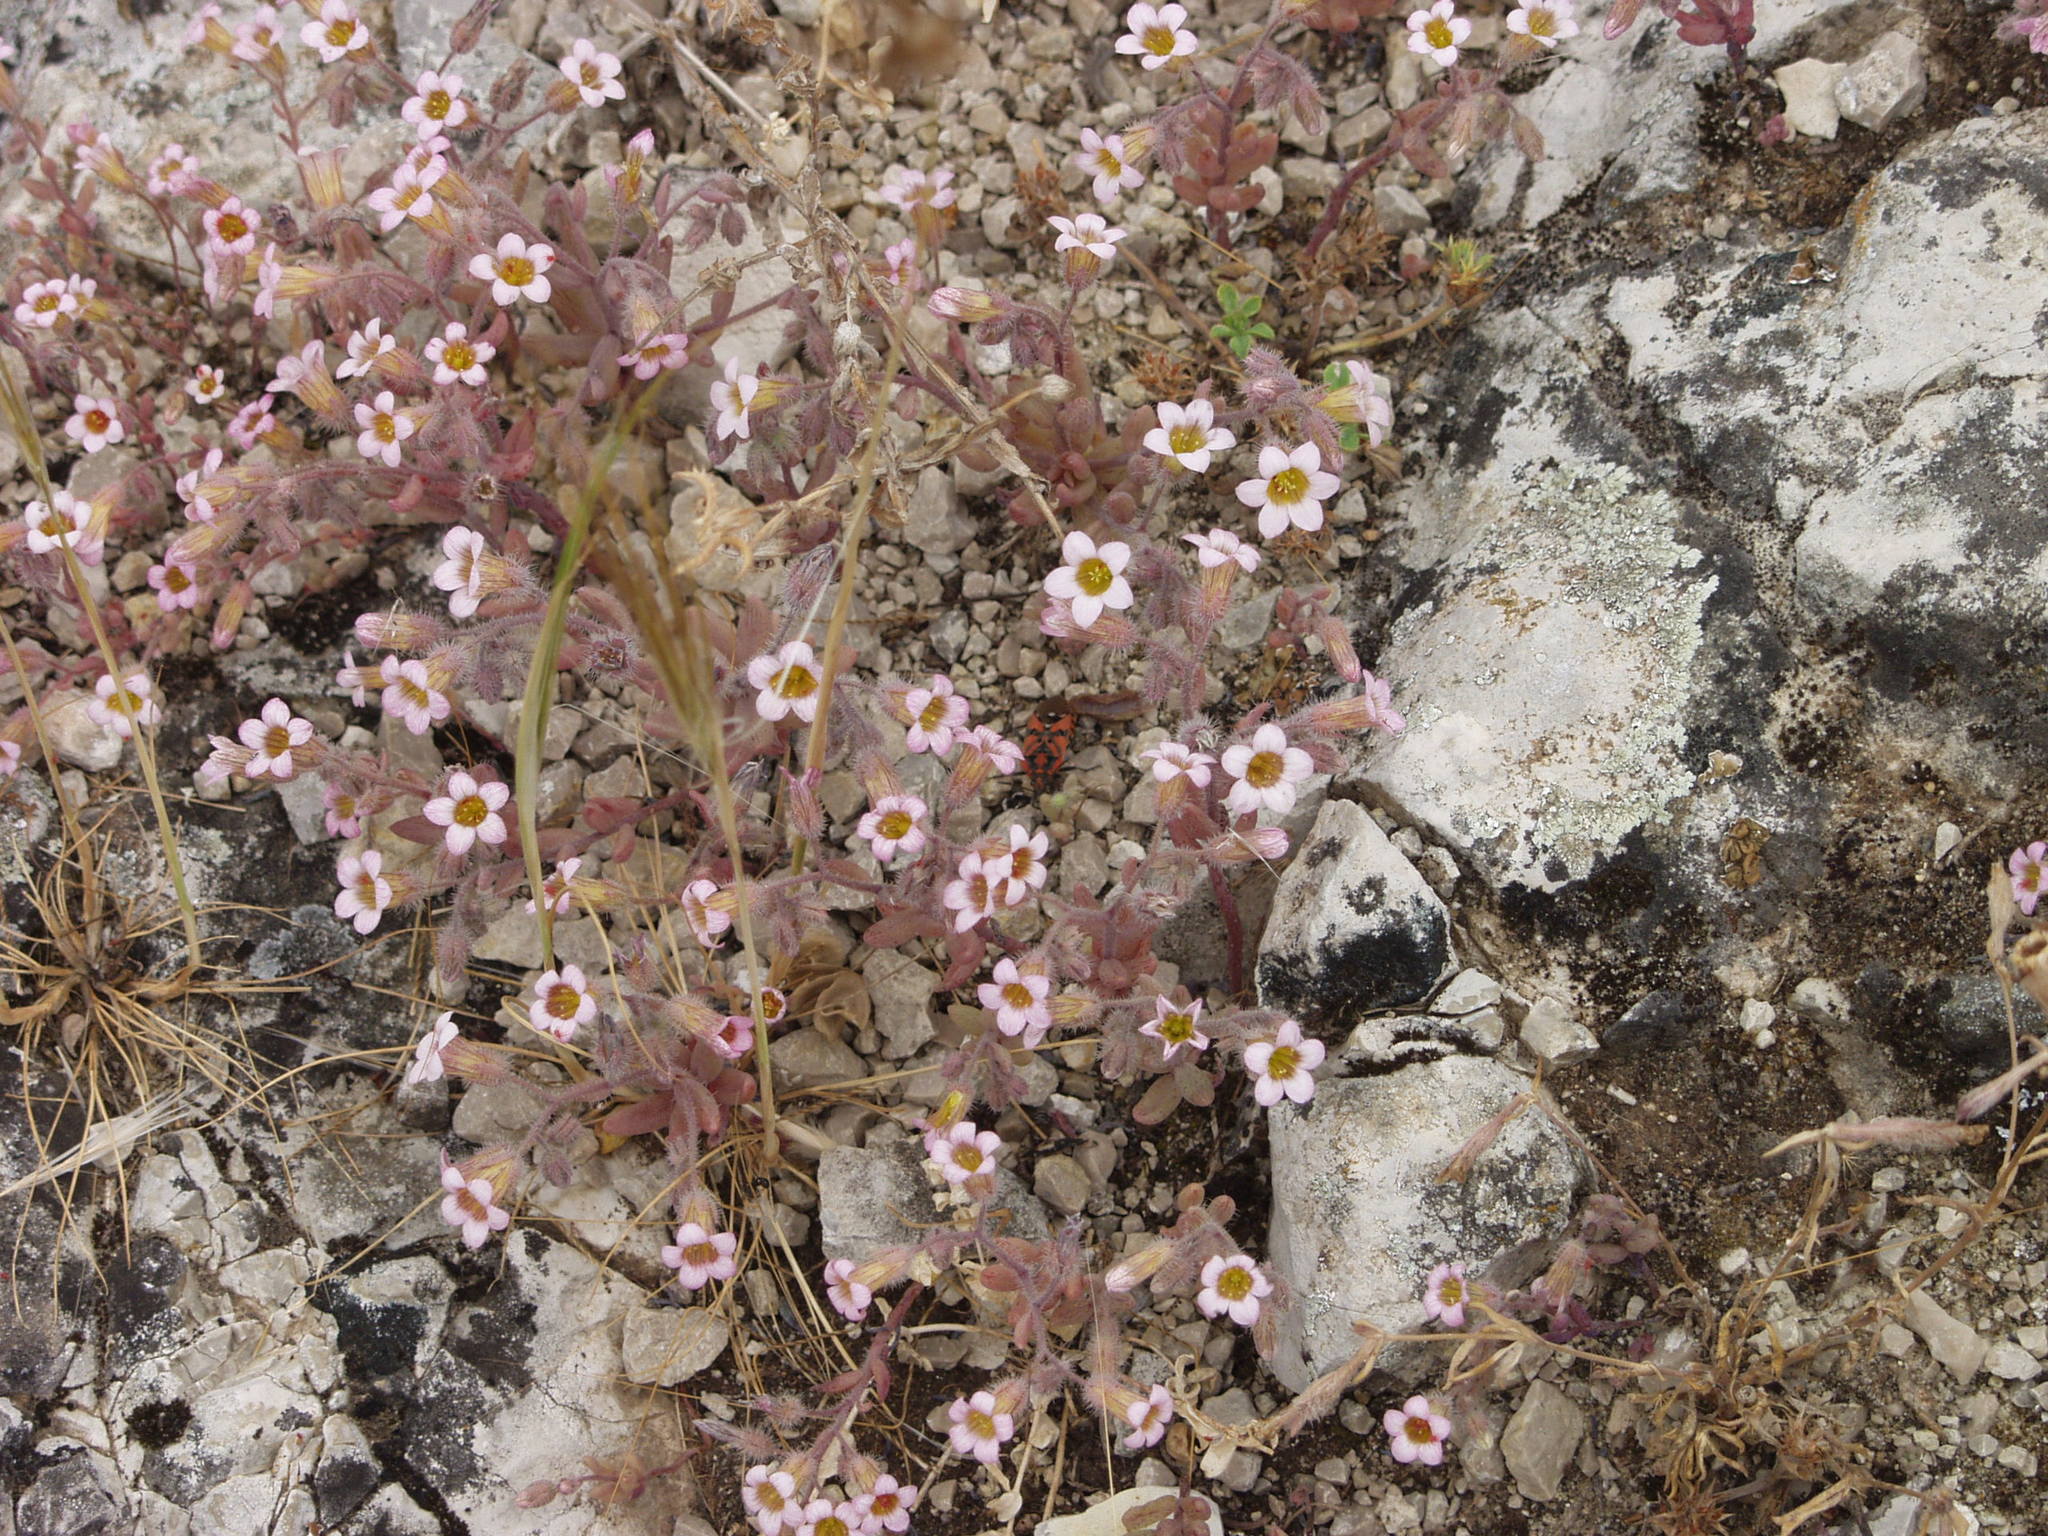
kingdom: Plantae
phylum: Tracheophyta
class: Magnoliopsida
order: Saxifragales
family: Crassulaceae
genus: Sedum
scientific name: Sedum mucizonia
